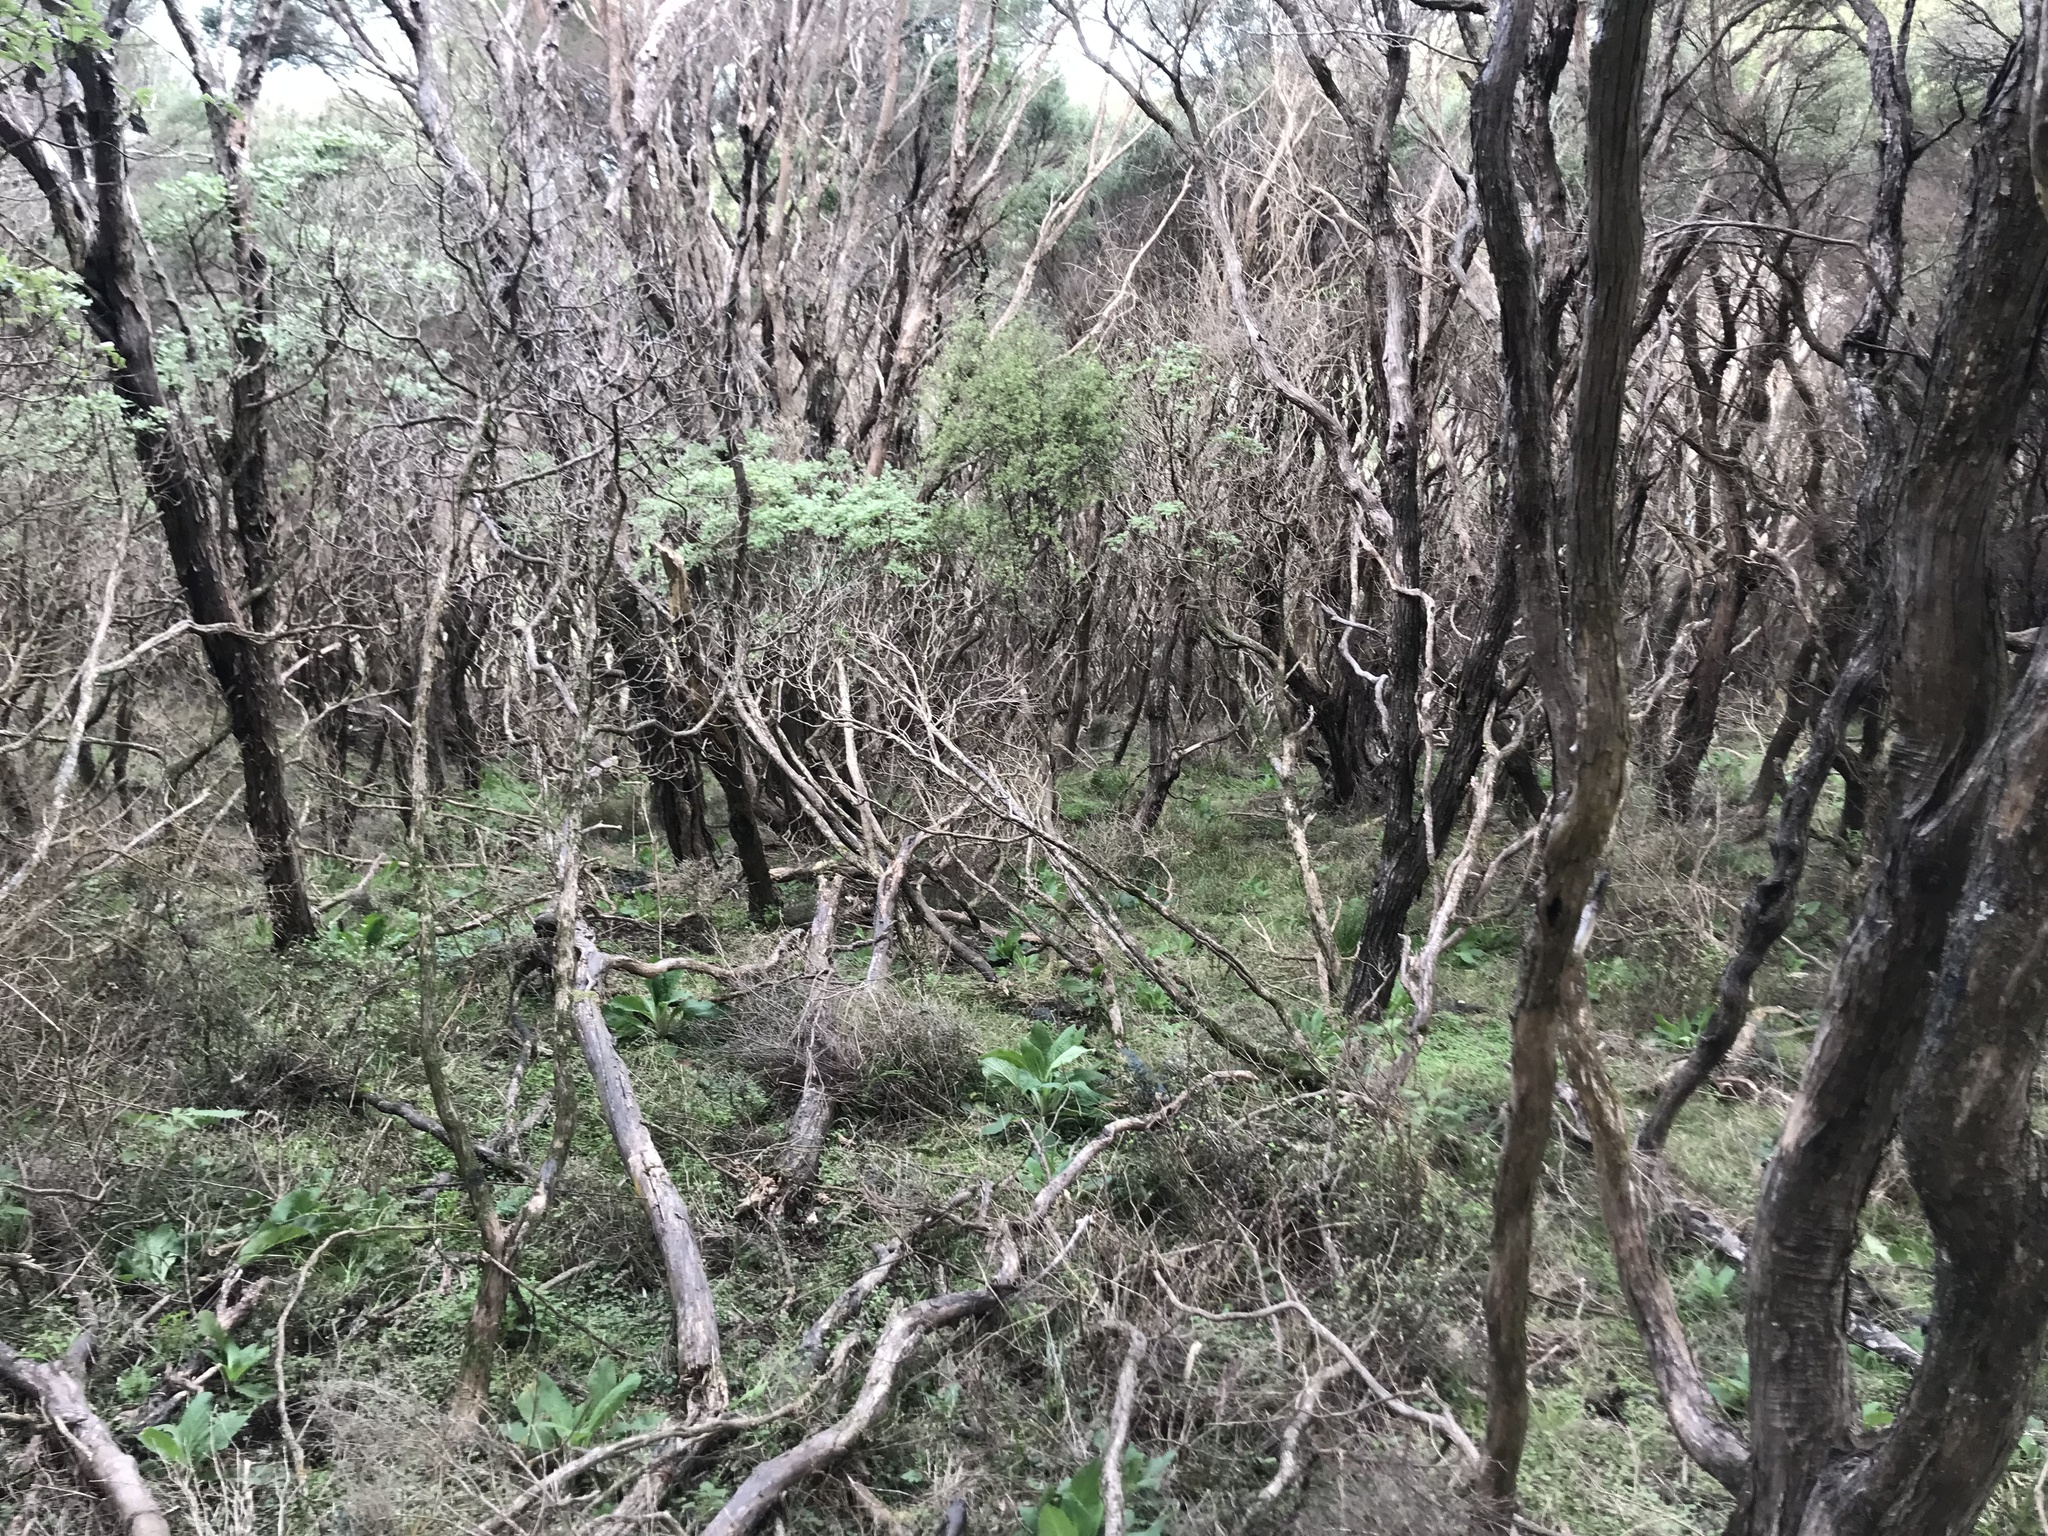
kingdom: Plantae
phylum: Tracheophyta
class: Magnoliopsida
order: Asterales
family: Asteraceae
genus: Brachyglottis
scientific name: Brachyglottis pentacopa
